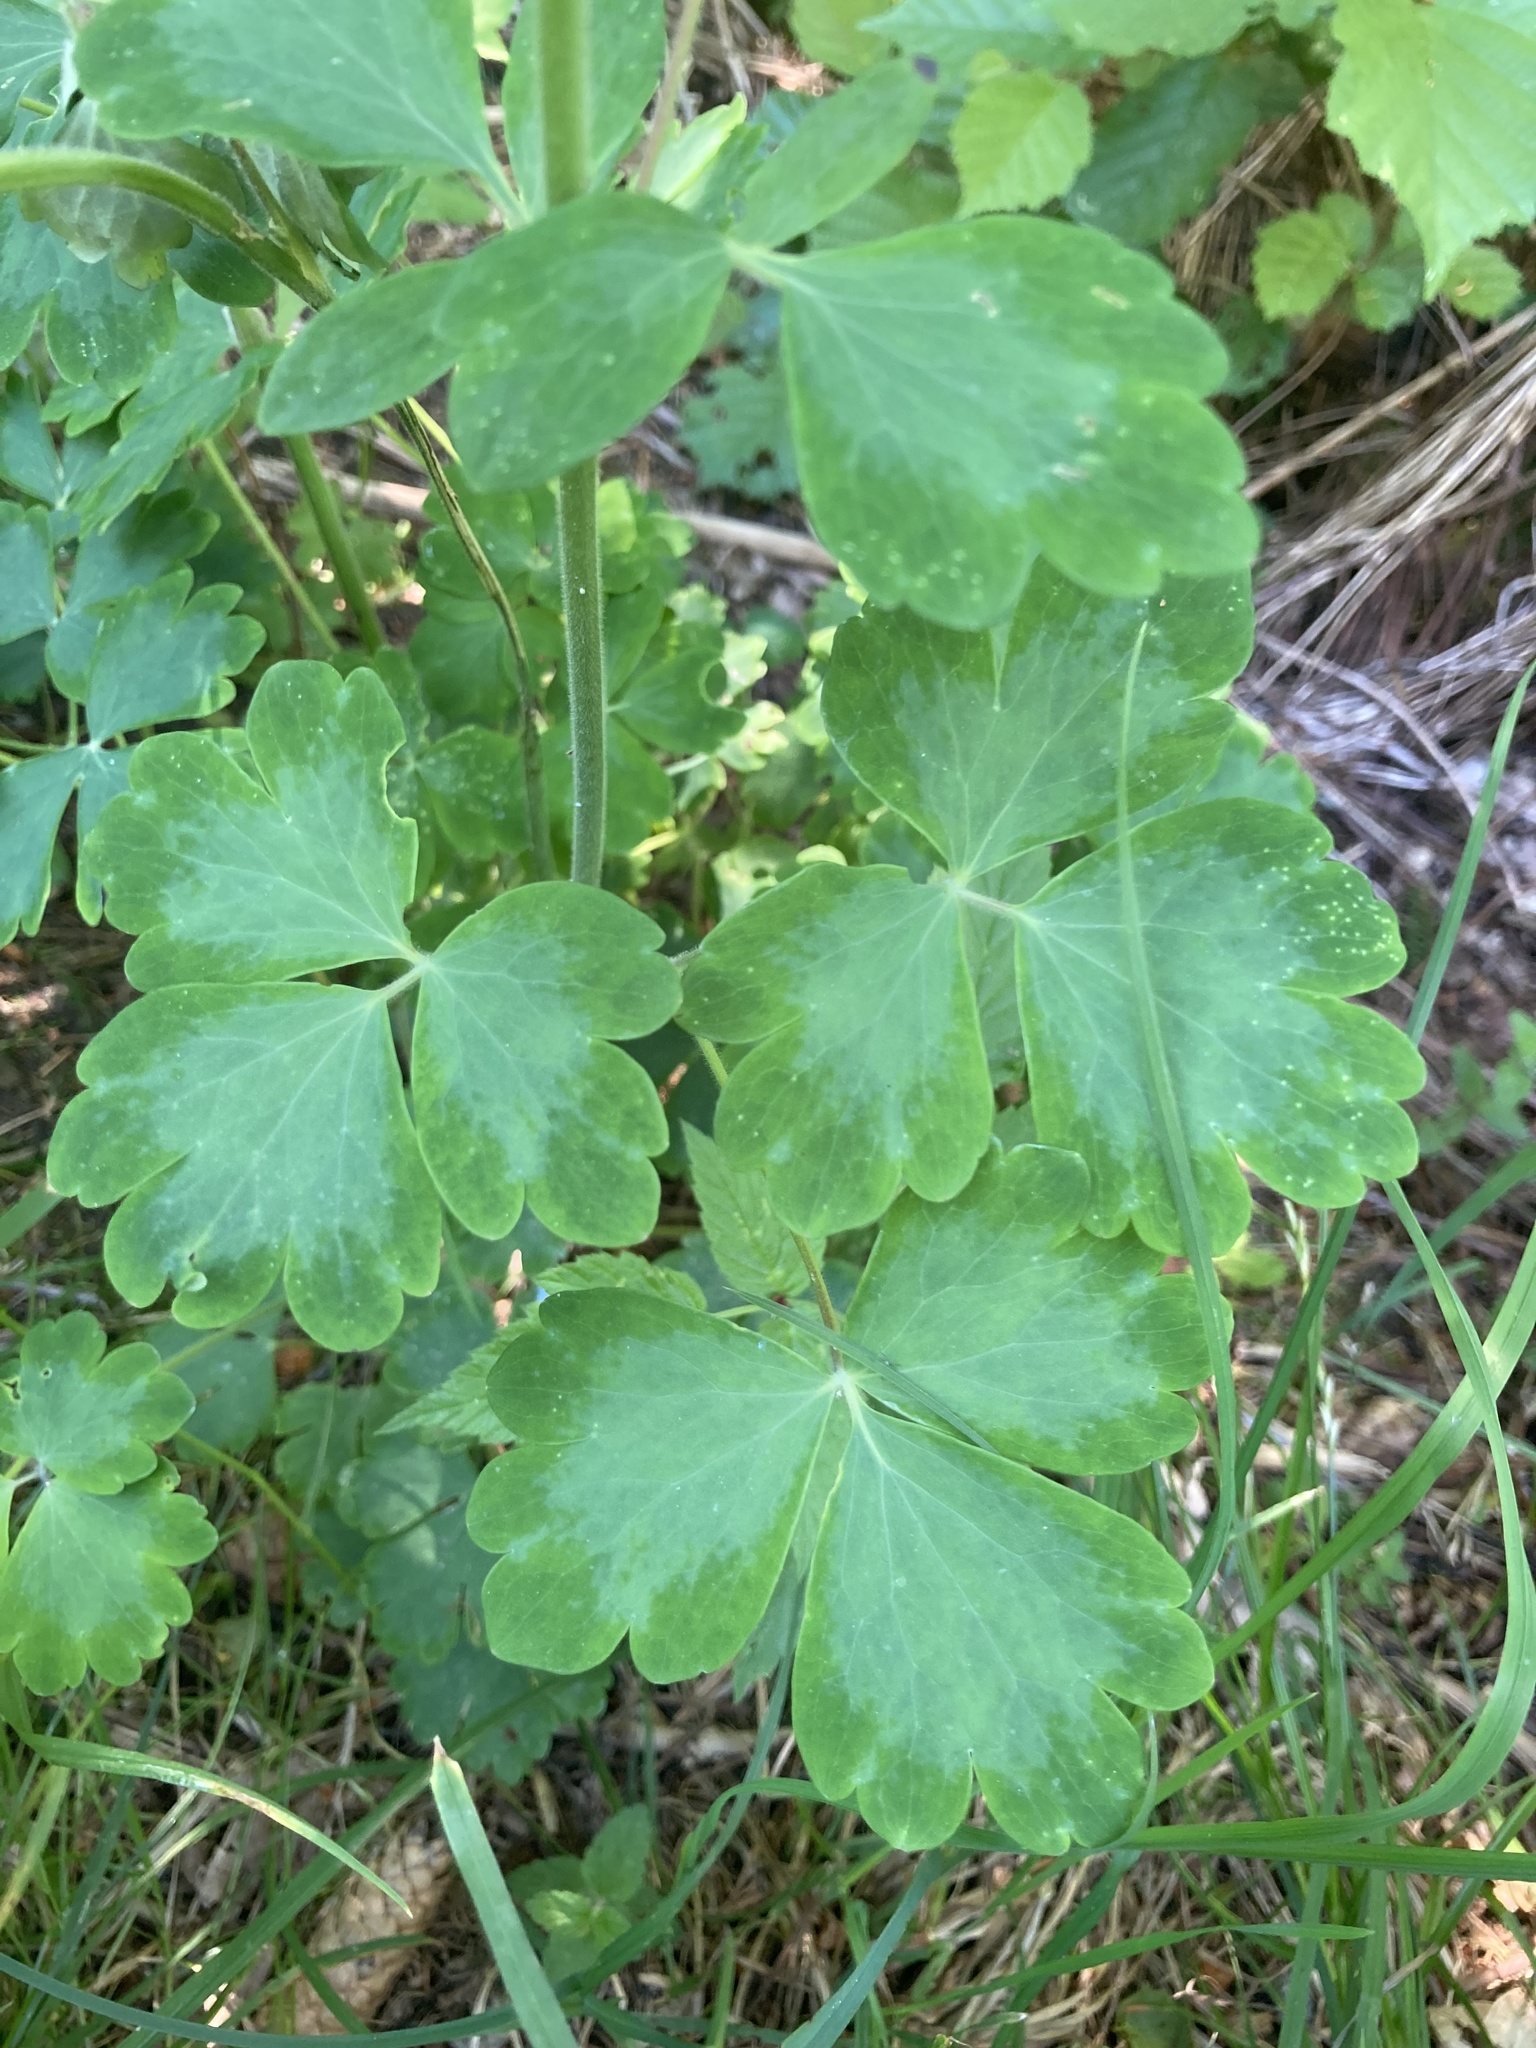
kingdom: Plantae
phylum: Tracheophyta
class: Magnoliopsida
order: Ranunculales
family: Ranunculaceae
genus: Aquilegia
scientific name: Aquilegia vulgaris
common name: Columbine
